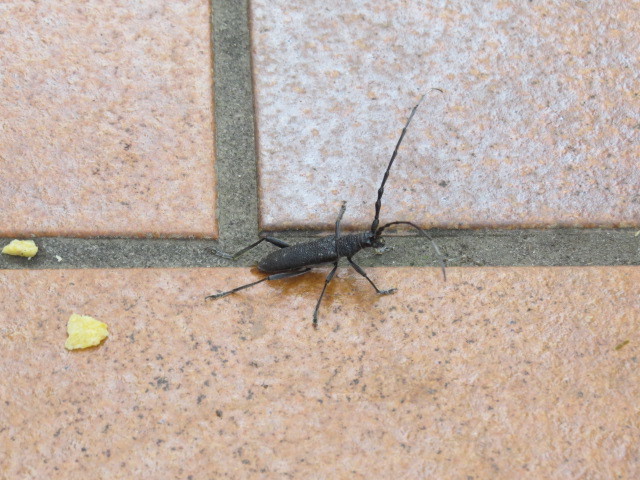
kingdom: Animalia
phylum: Arthropoda
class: Insecta
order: Coleoptera
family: Cerambycidae
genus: Cerambyx
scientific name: Cerambyx scopolii
